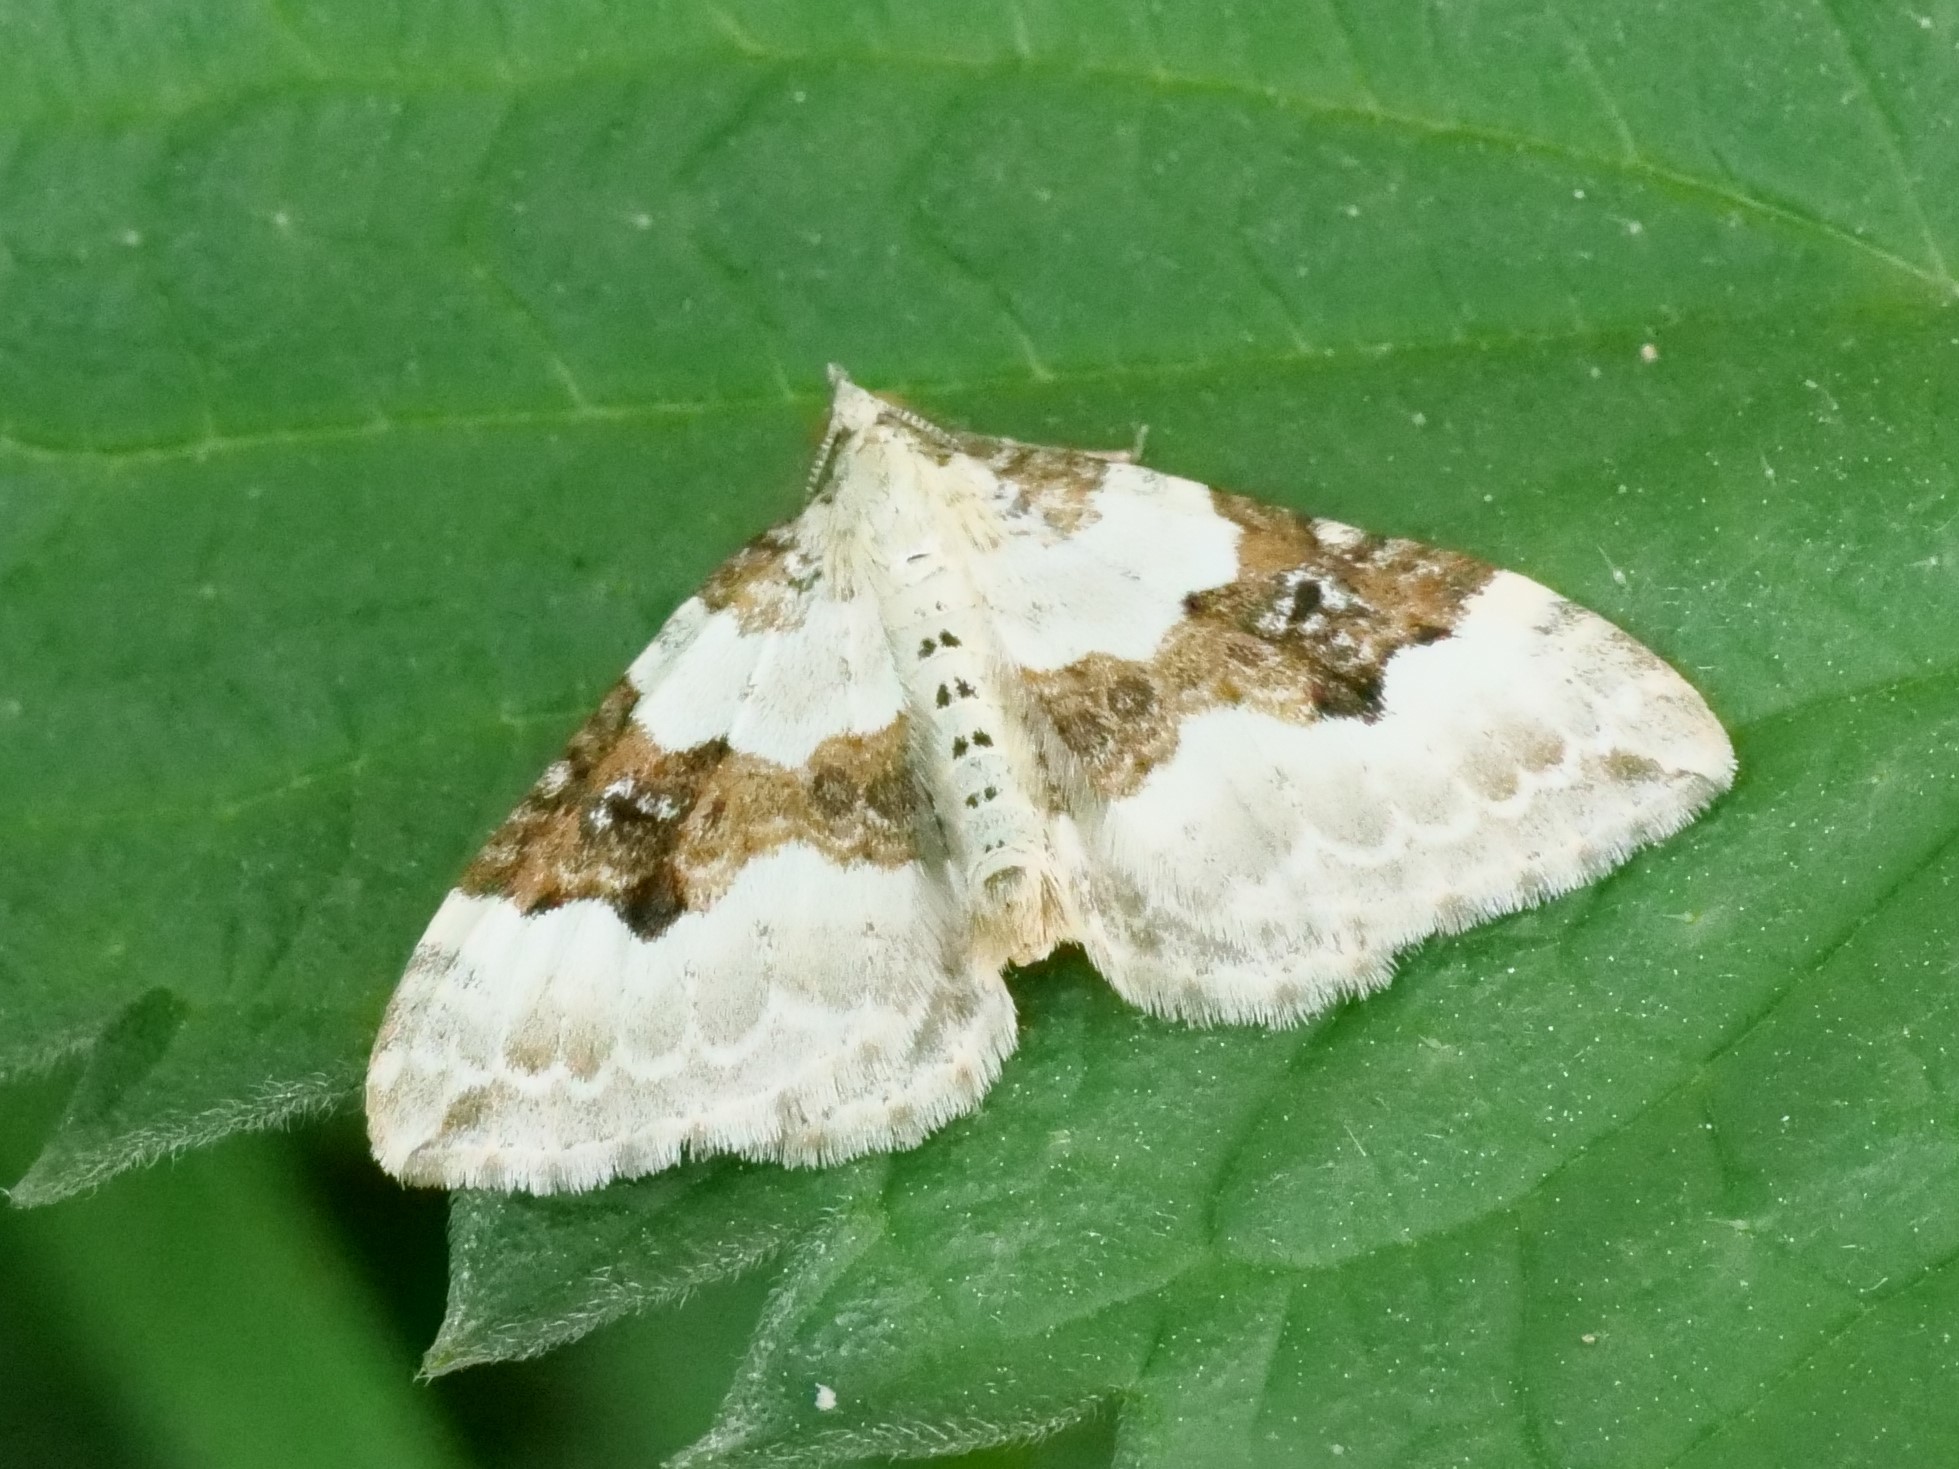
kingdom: Animalia
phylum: Arthropoda
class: Insecta
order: Lepidoptera
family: Geometridae
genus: Xanthorhoe
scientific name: Xanthorhoe montanata
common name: Silver-ground carpet
